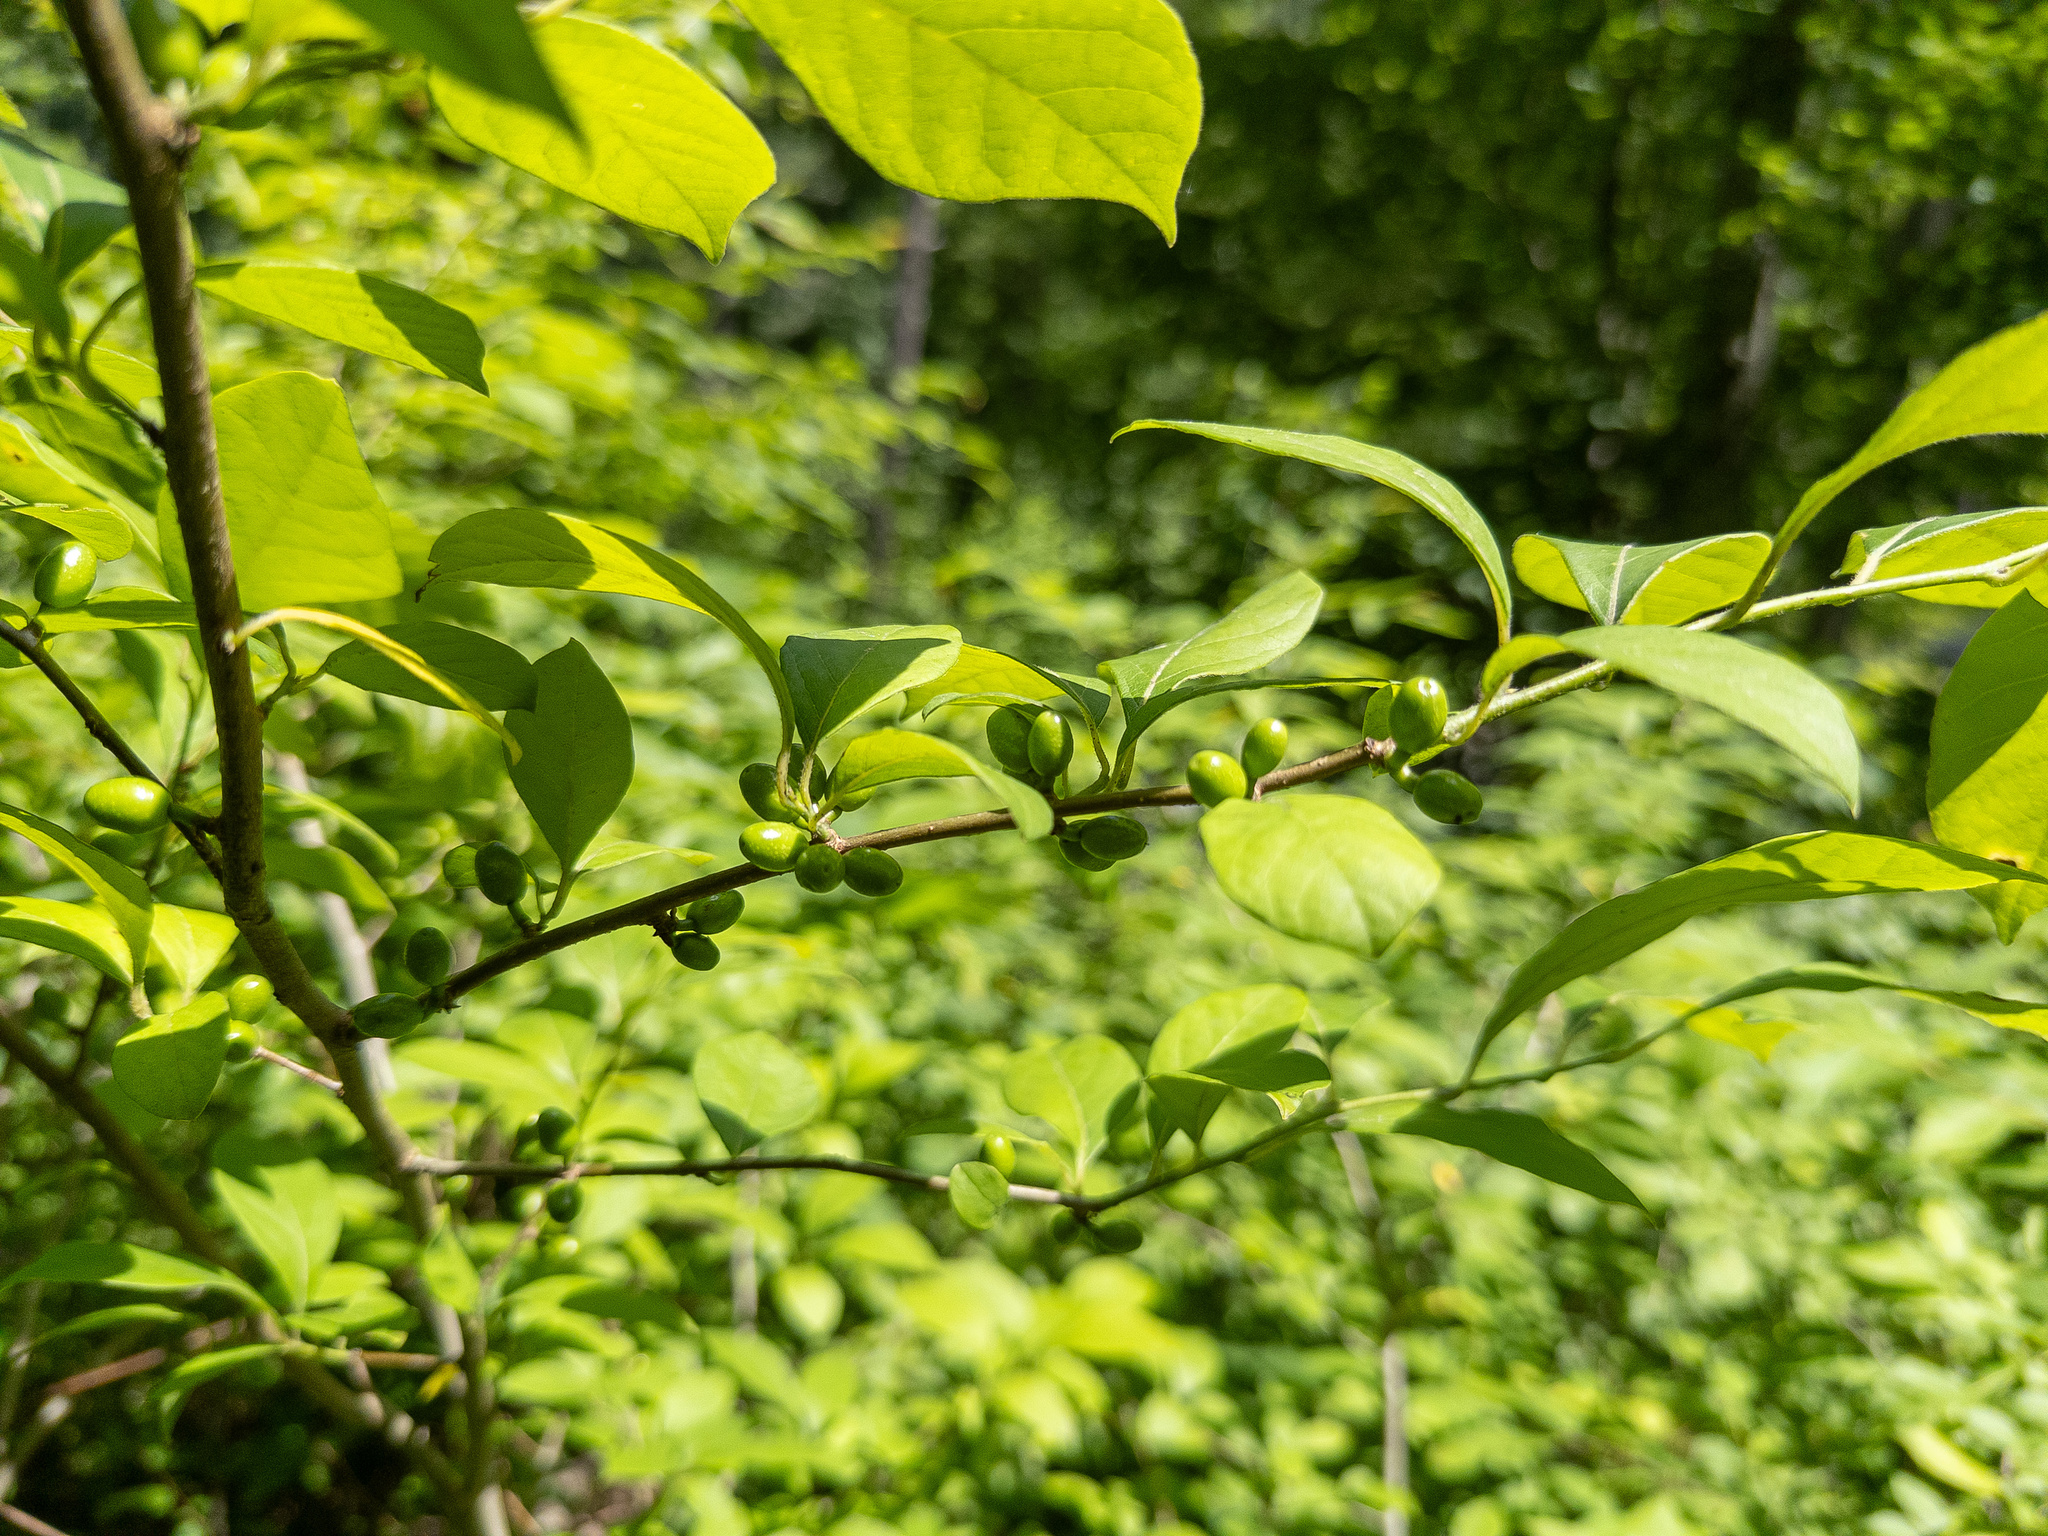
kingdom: Plantae
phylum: Tracheophyta
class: Magnoliopsida
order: Laurales
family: Lauraceae
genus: Lindera
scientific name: Lindera benzoin
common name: Spicebush
